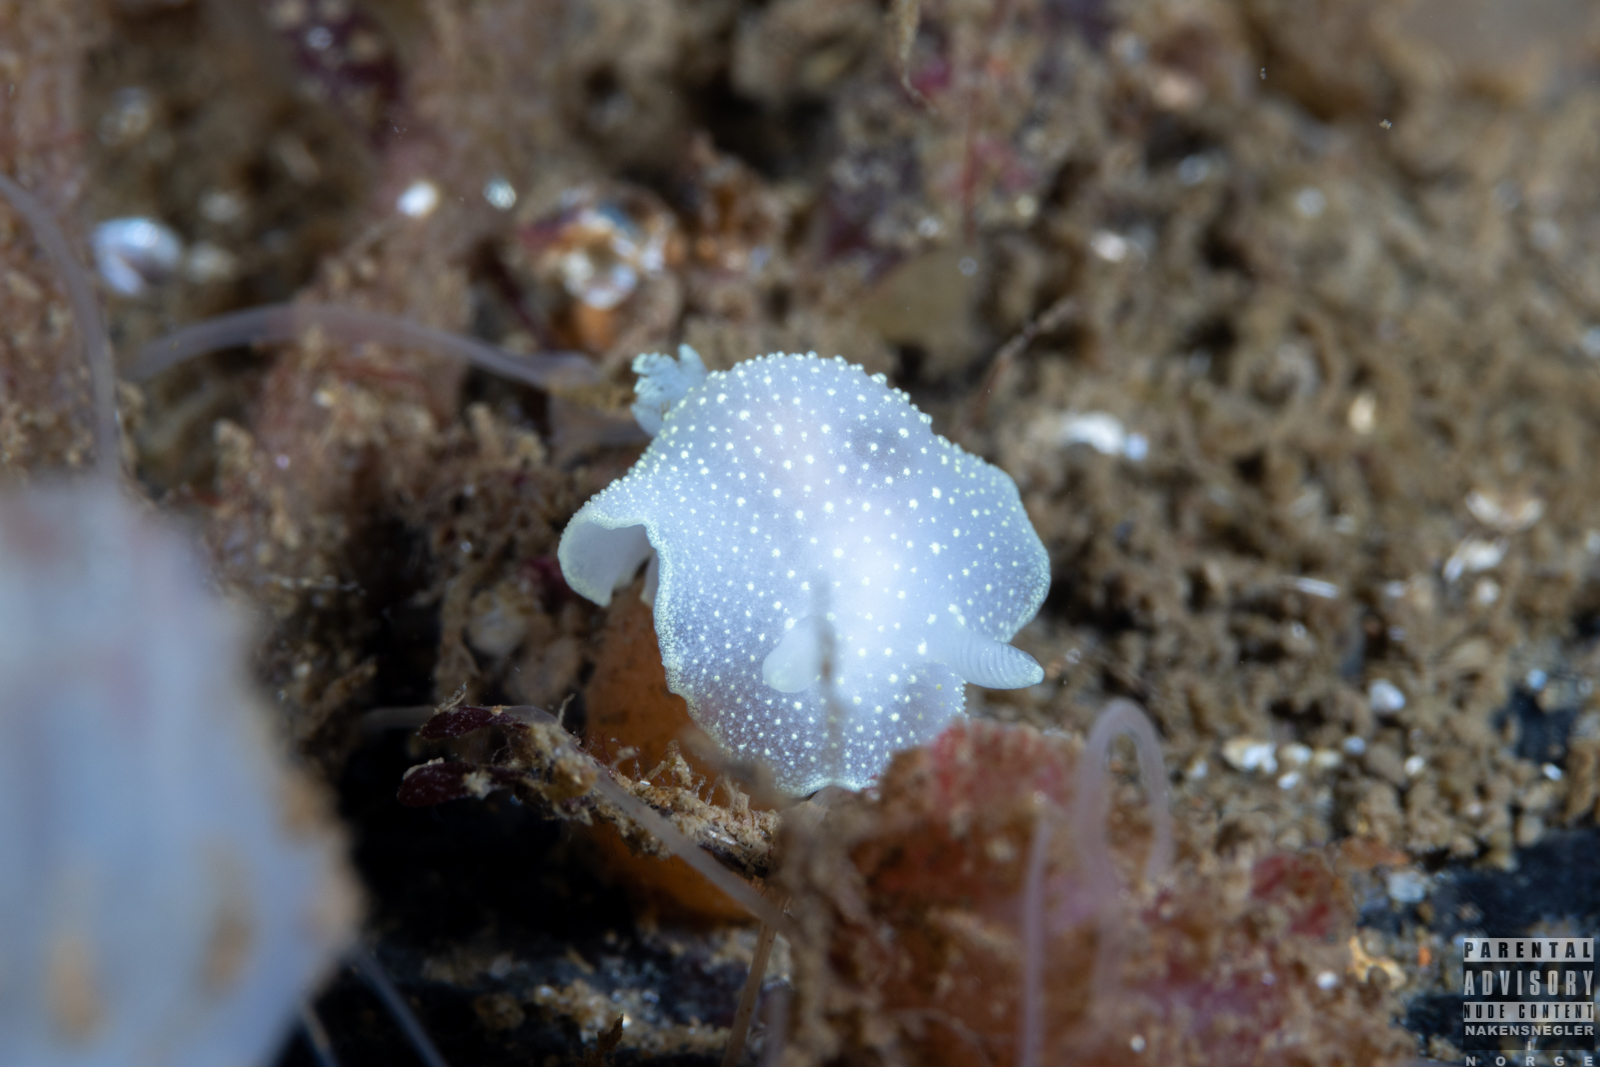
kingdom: Animalia
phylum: Mollusca
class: Gastropoda
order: Nudibranchia
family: Cadlinidae
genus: Cadlina
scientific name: Cadlina laevis
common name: White atlantic cadlina
